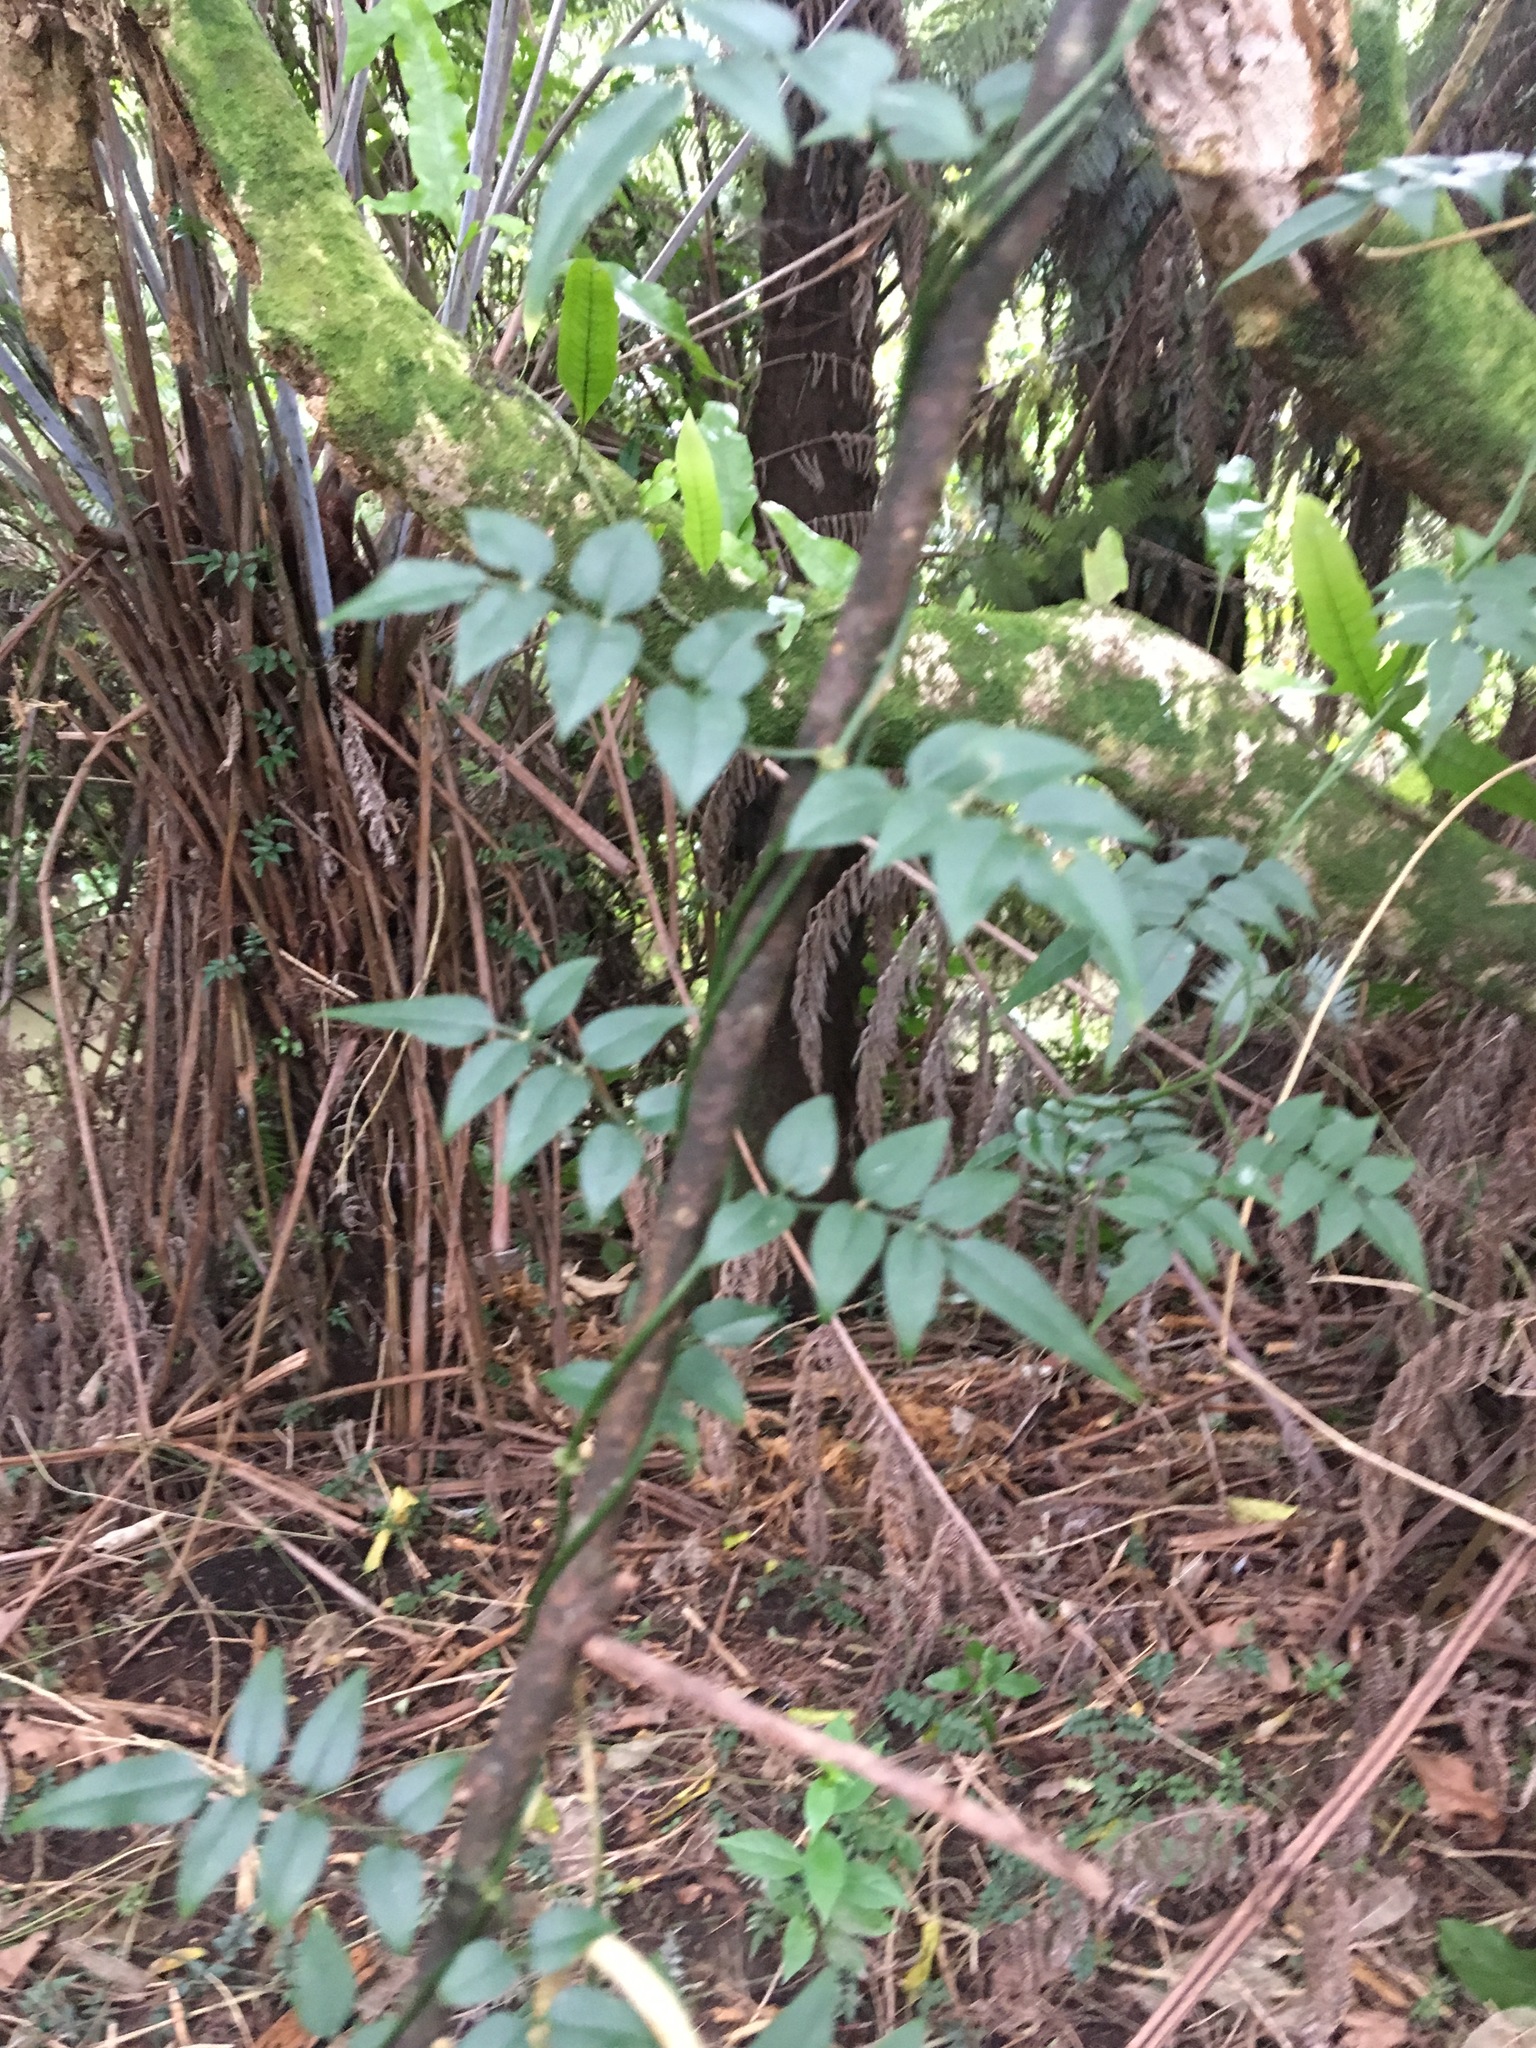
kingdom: Plantae
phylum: Tracheophyta
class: Magnoliopsida
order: Lamiales
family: Oleaceae
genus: Jasminum
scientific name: Jasminum polyanthum
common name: Pink jasmine
